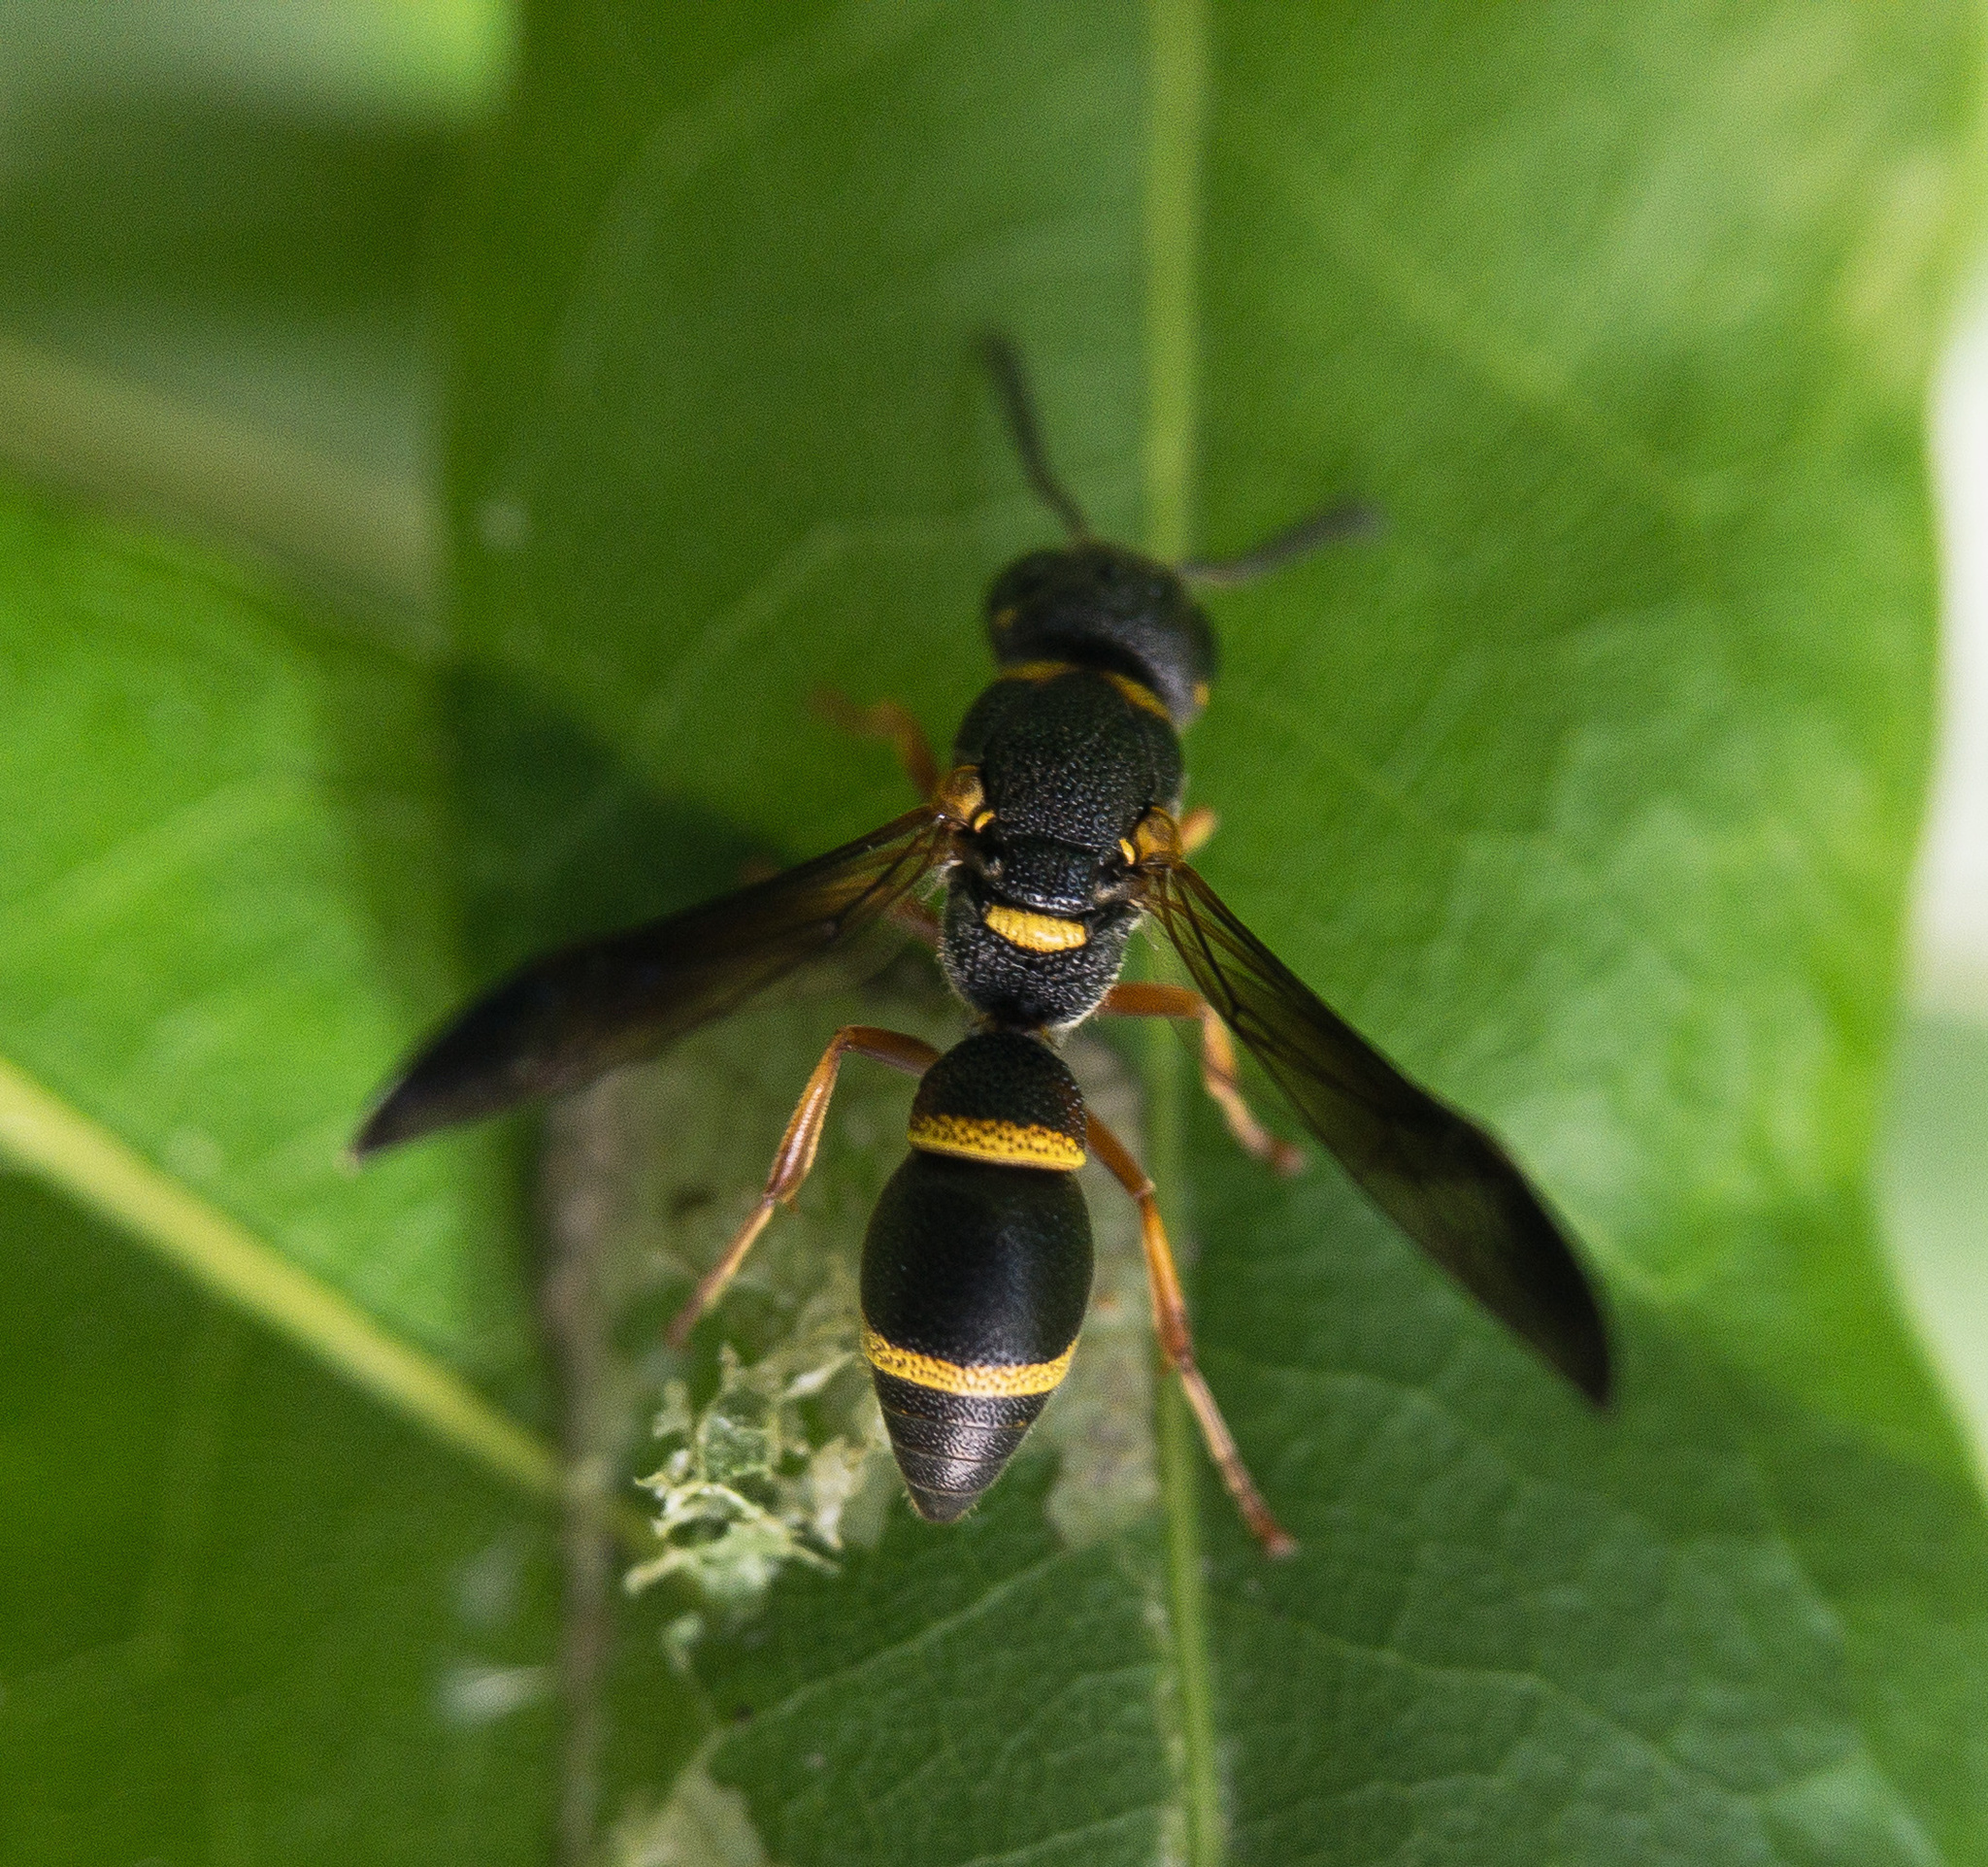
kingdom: Animalia
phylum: Arthropoda
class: Insecta
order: Hymenoptera
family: Eumenidae
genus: Parancistrocerus
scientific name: Parancistrocerus perennis
